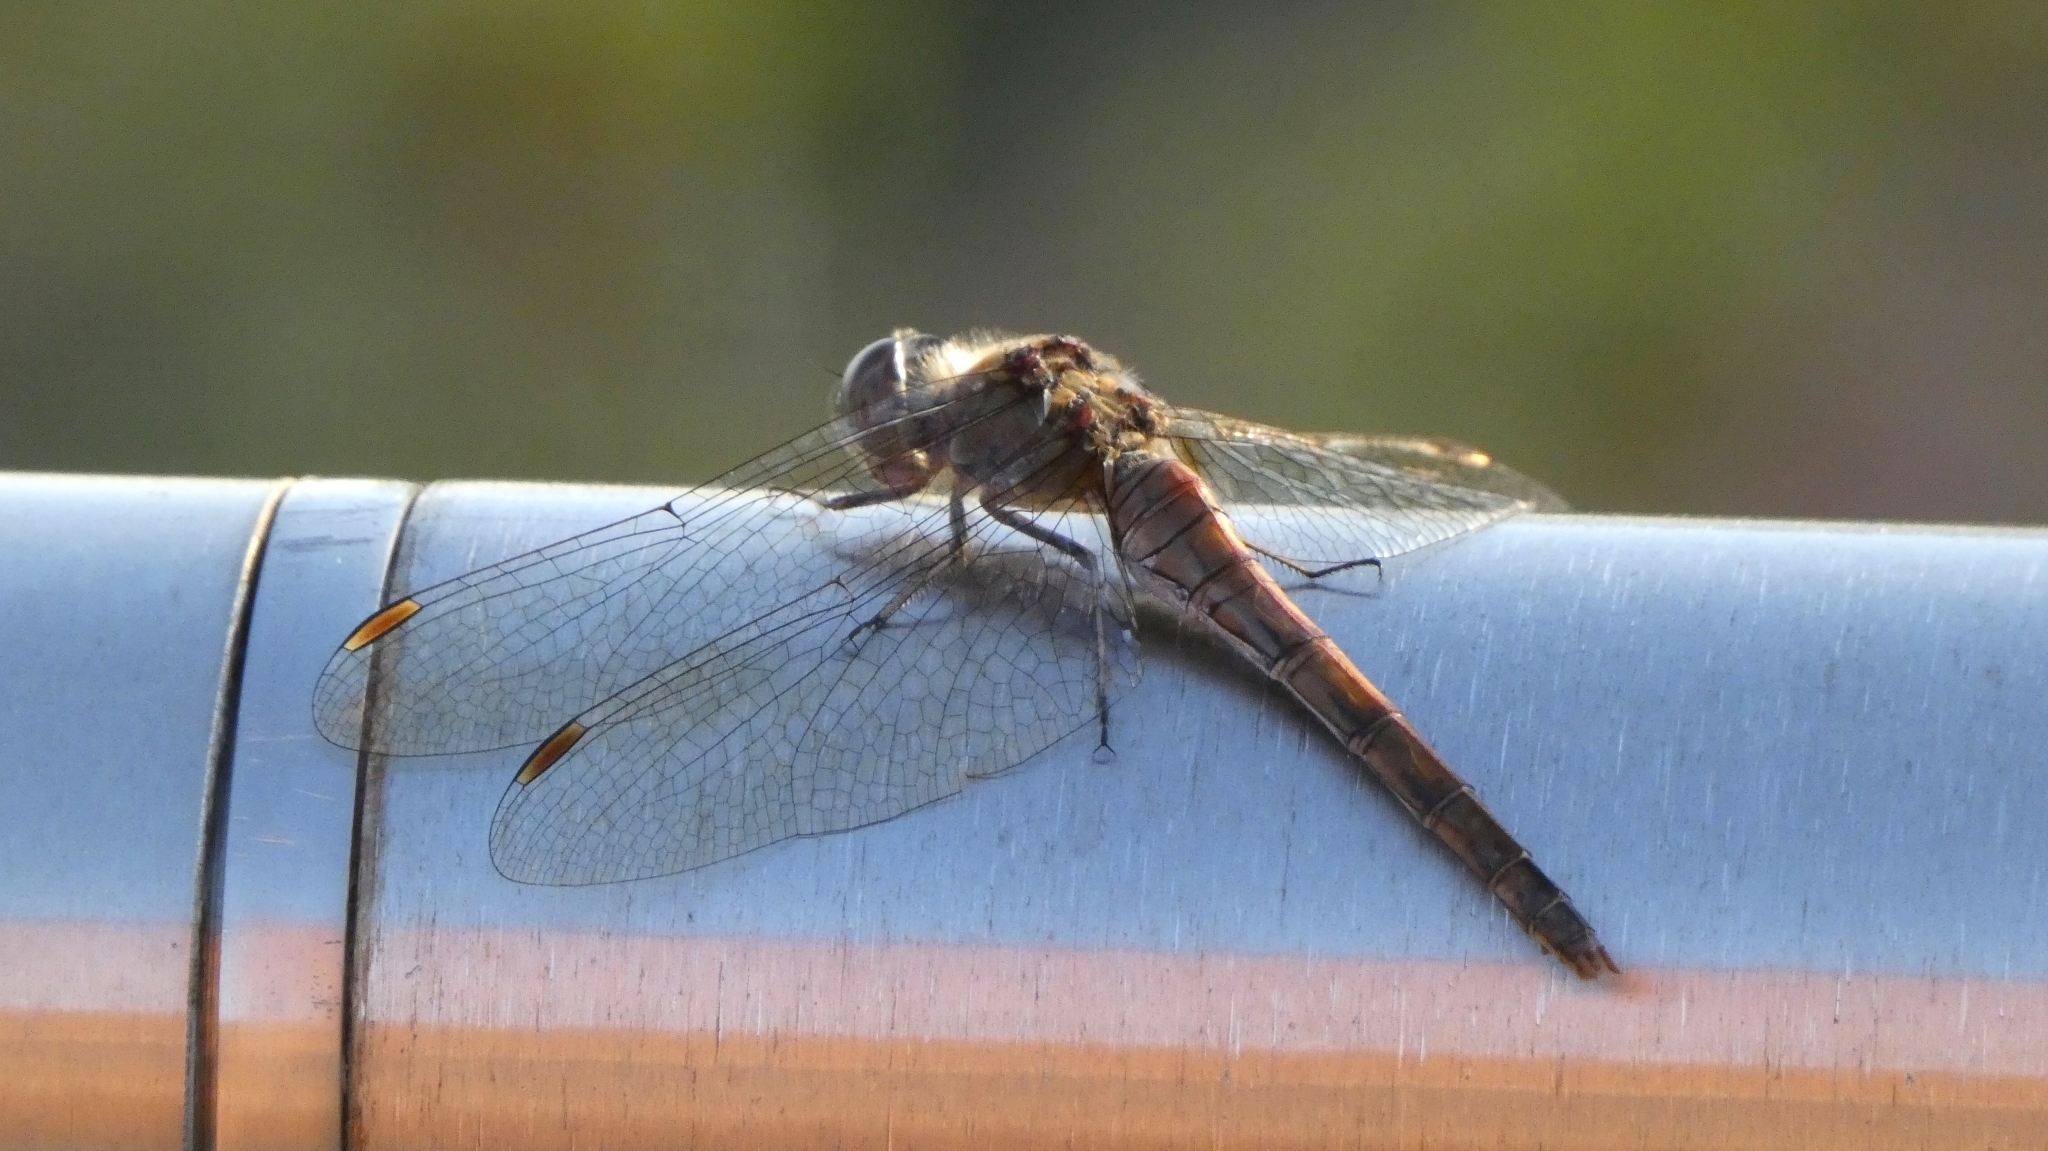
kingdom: Animalia
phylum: Arthropoda
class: Insecta
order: Odonata
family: Libellulidae
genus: Sympetrum
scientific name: Sympetrum striolatum
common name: Common darter
